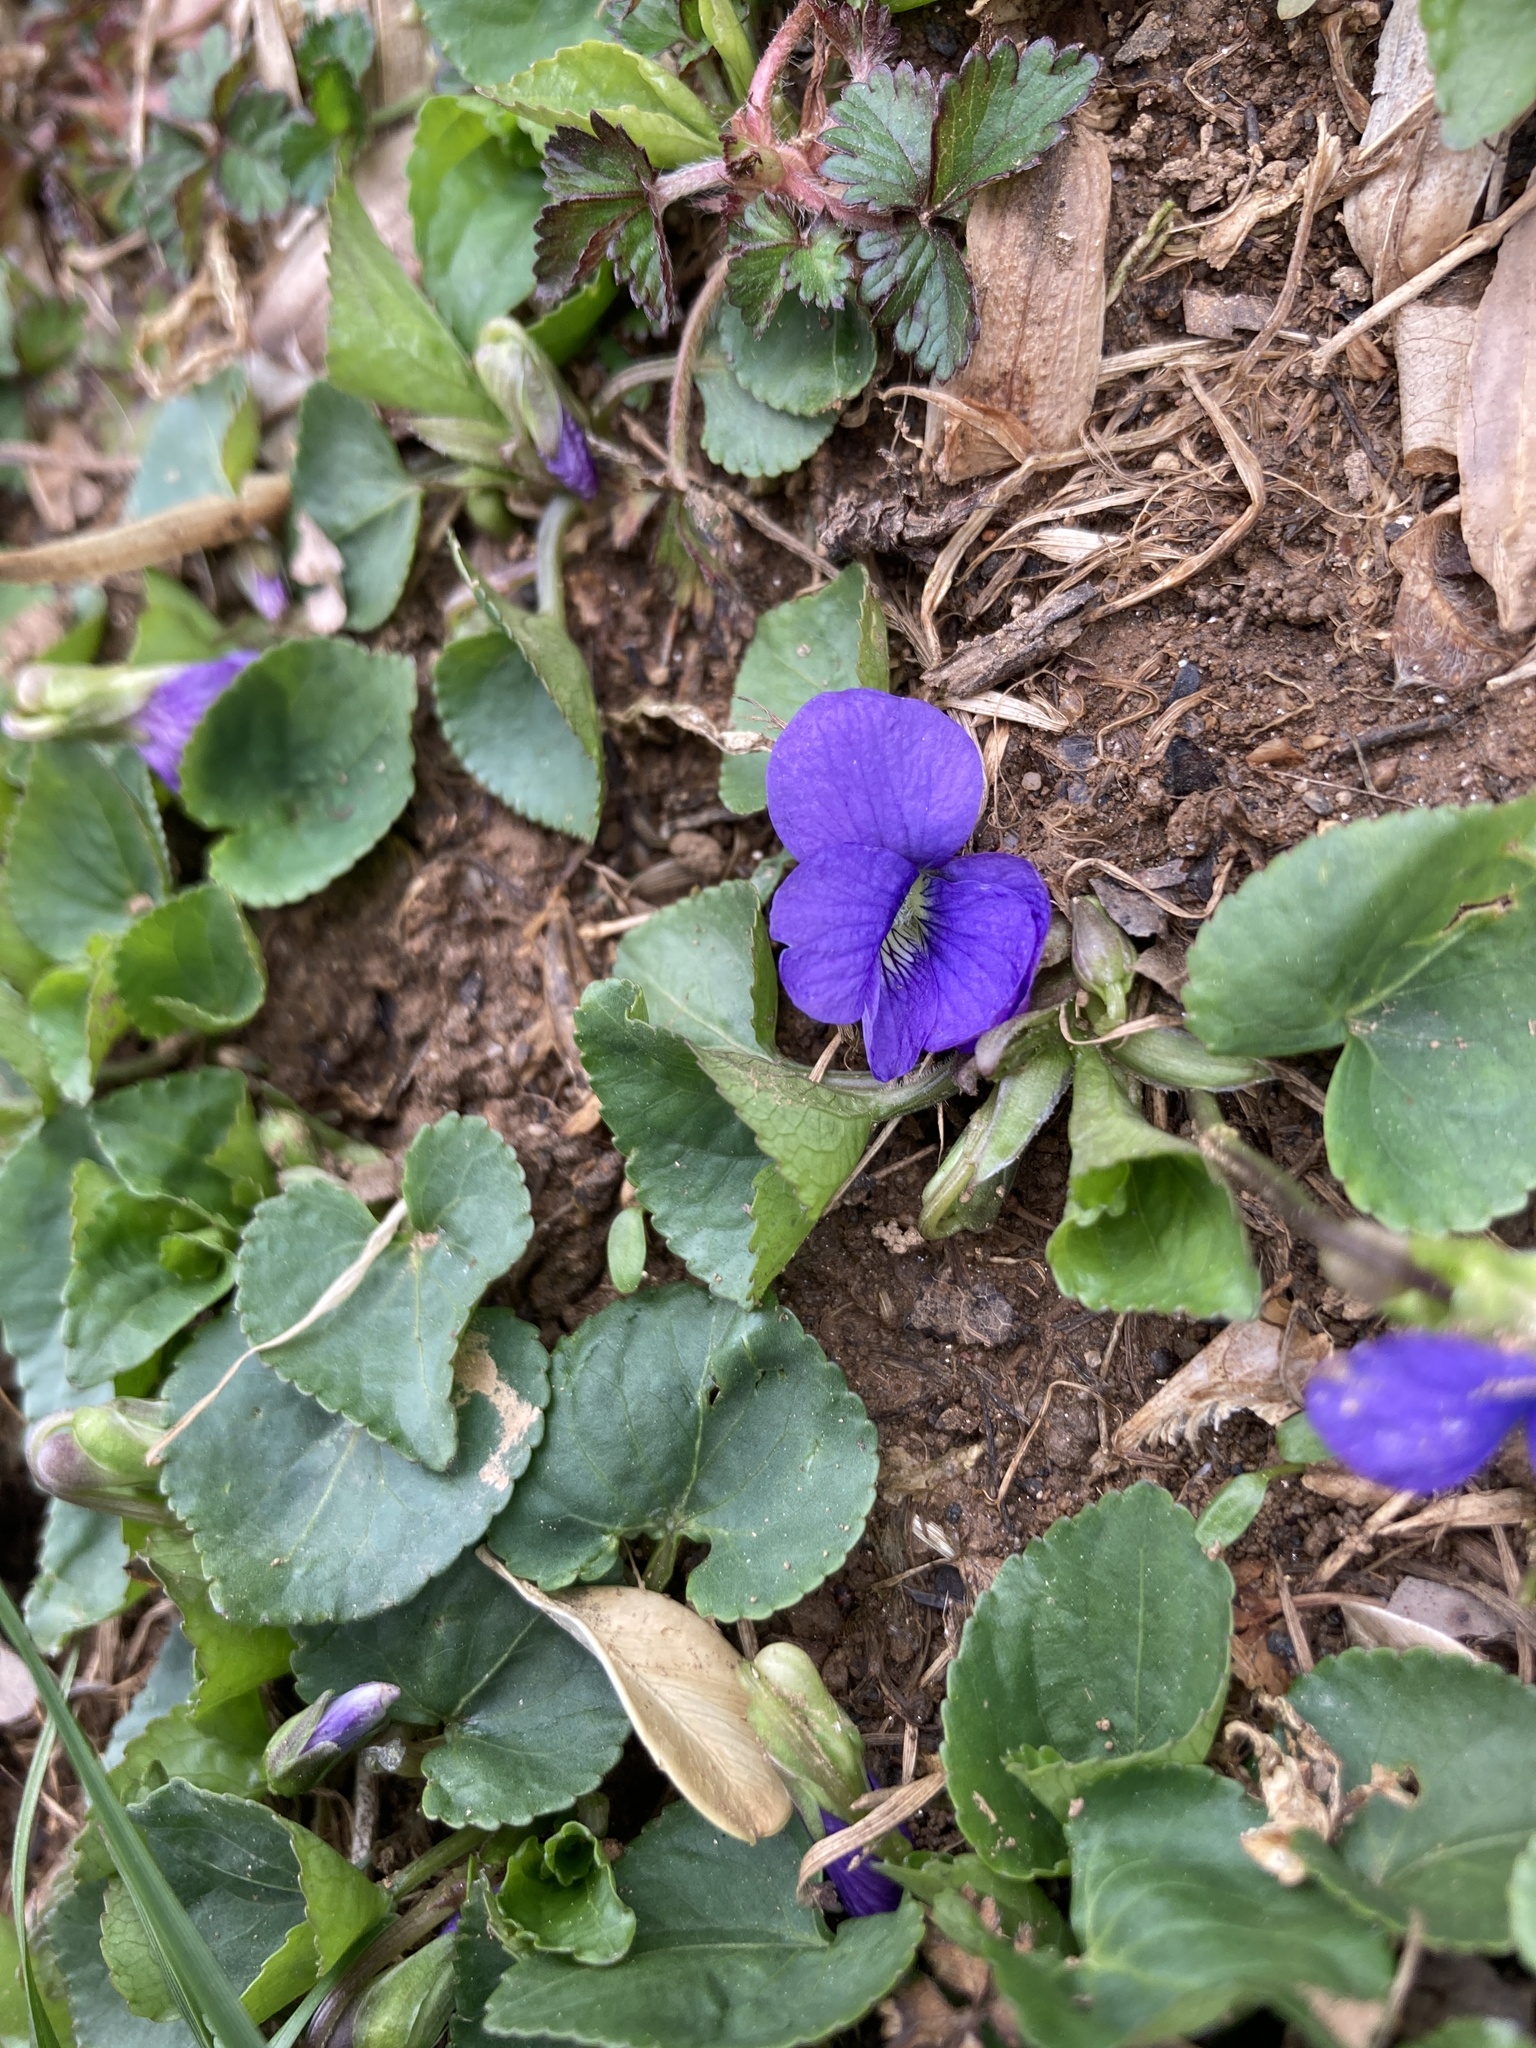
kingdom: Plantae
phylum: Tracheophyta
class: Magnoliopsida
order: Malpighiales
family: Violaceae
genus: Viola
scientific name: Viola sororia
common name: Dooryard violet
